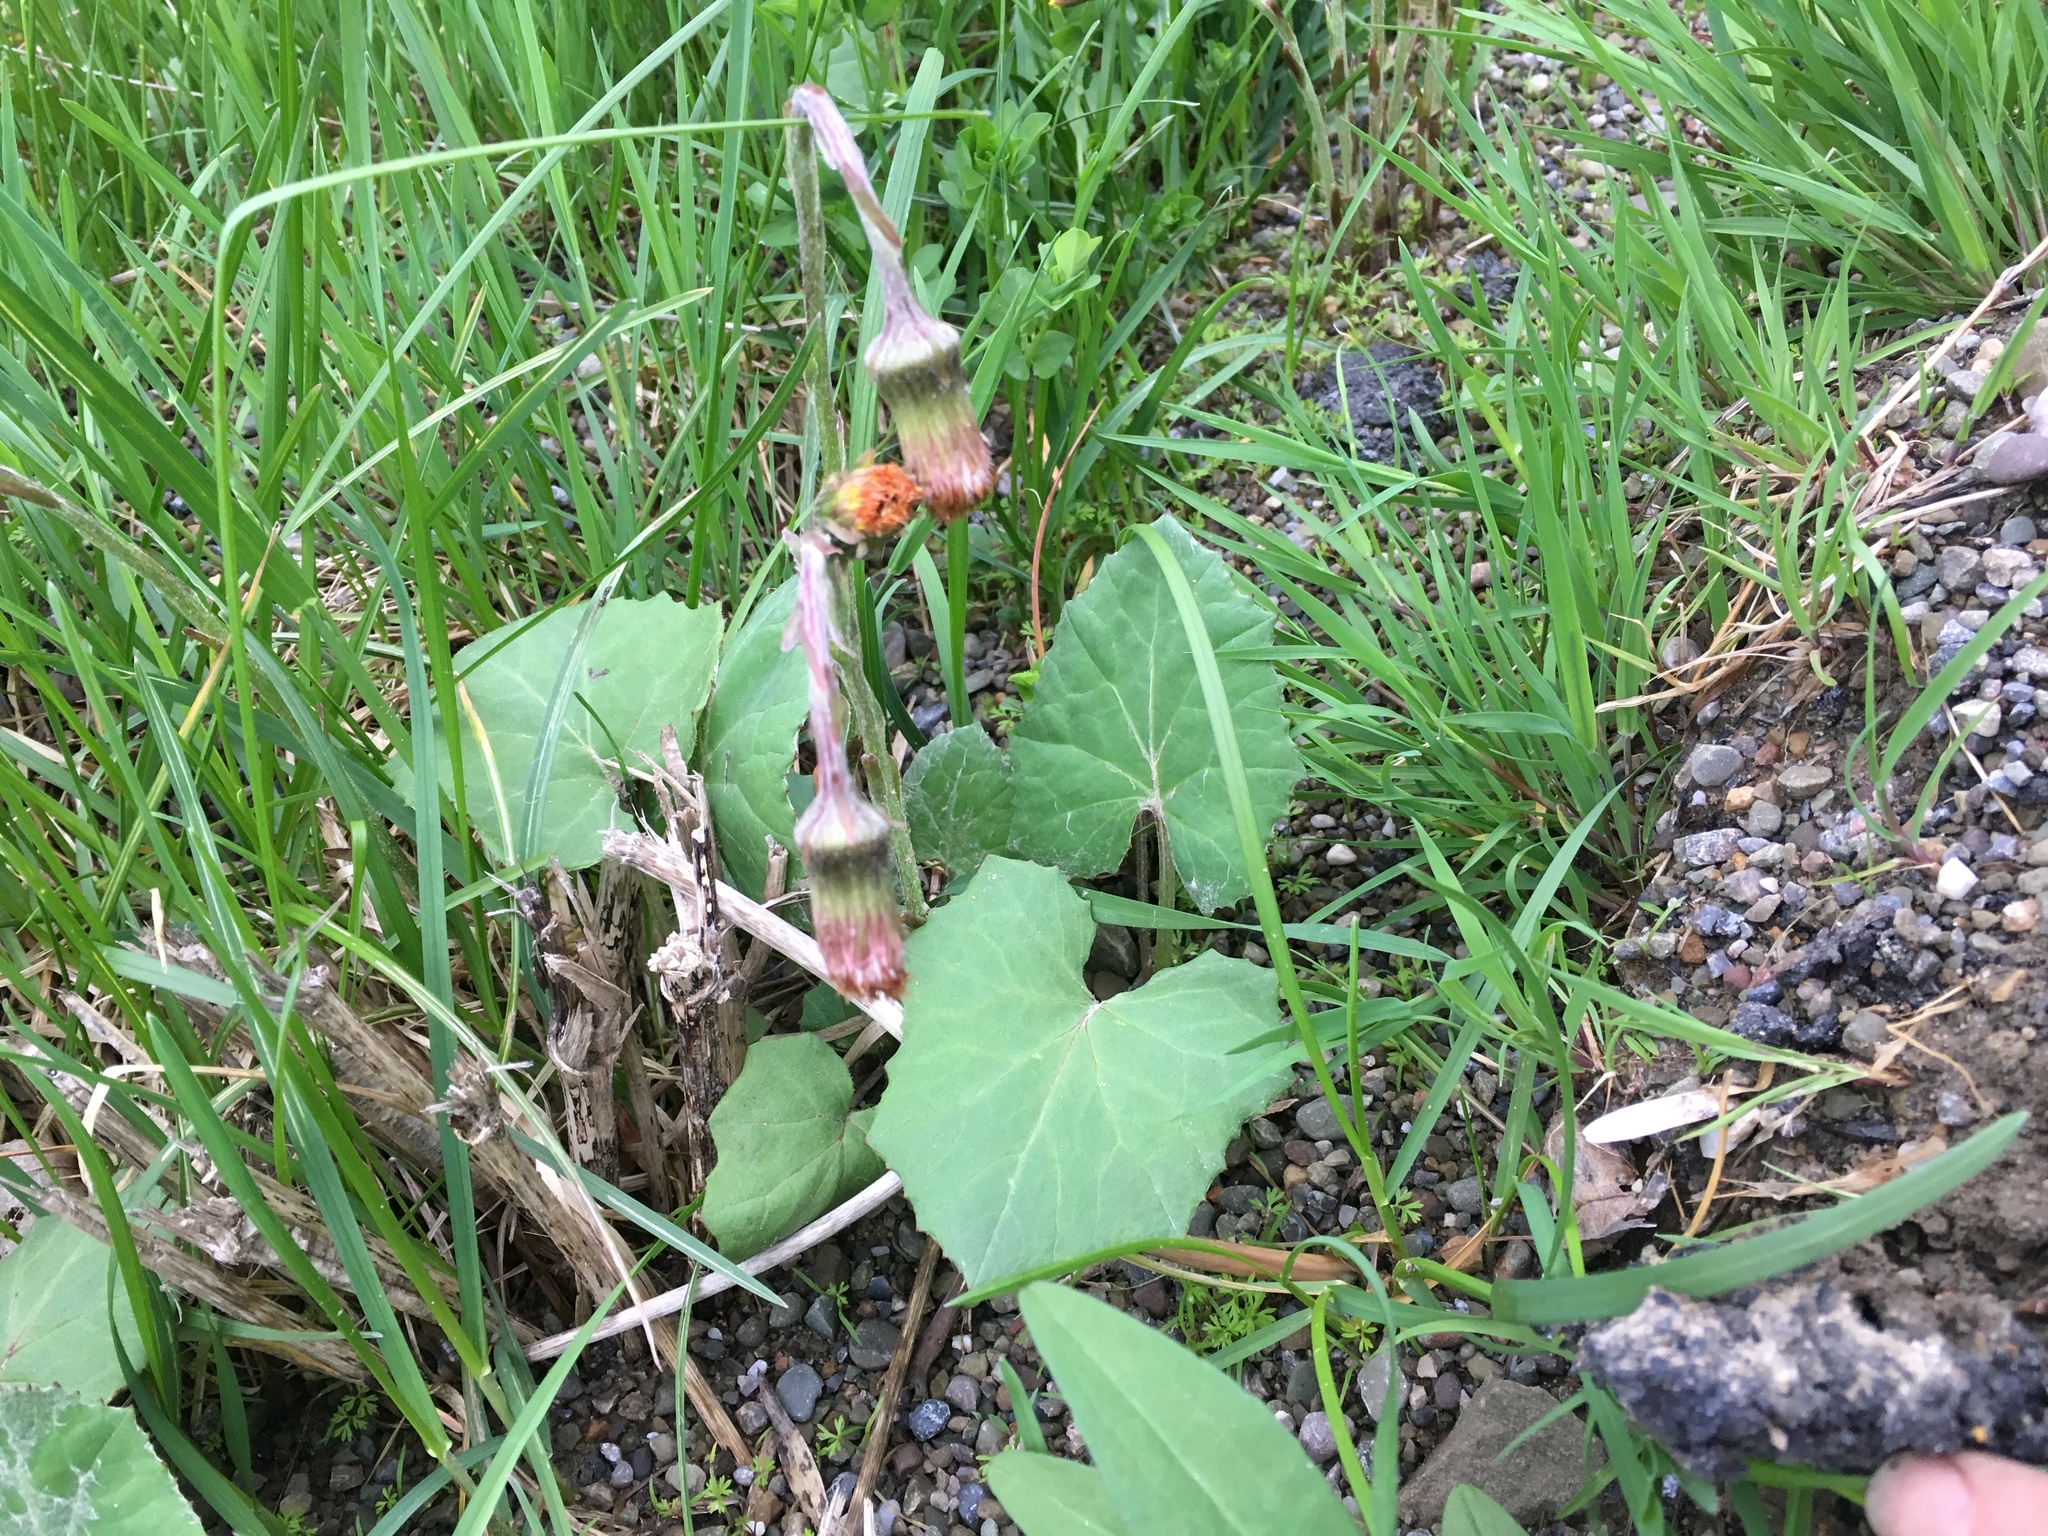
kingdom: Plantae
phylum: Tracheophyta
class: Magnoliopsida
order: Asterales
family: Asteraceae
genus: Tussilago
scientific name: Tussilago farfara
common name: Coltsfoot
